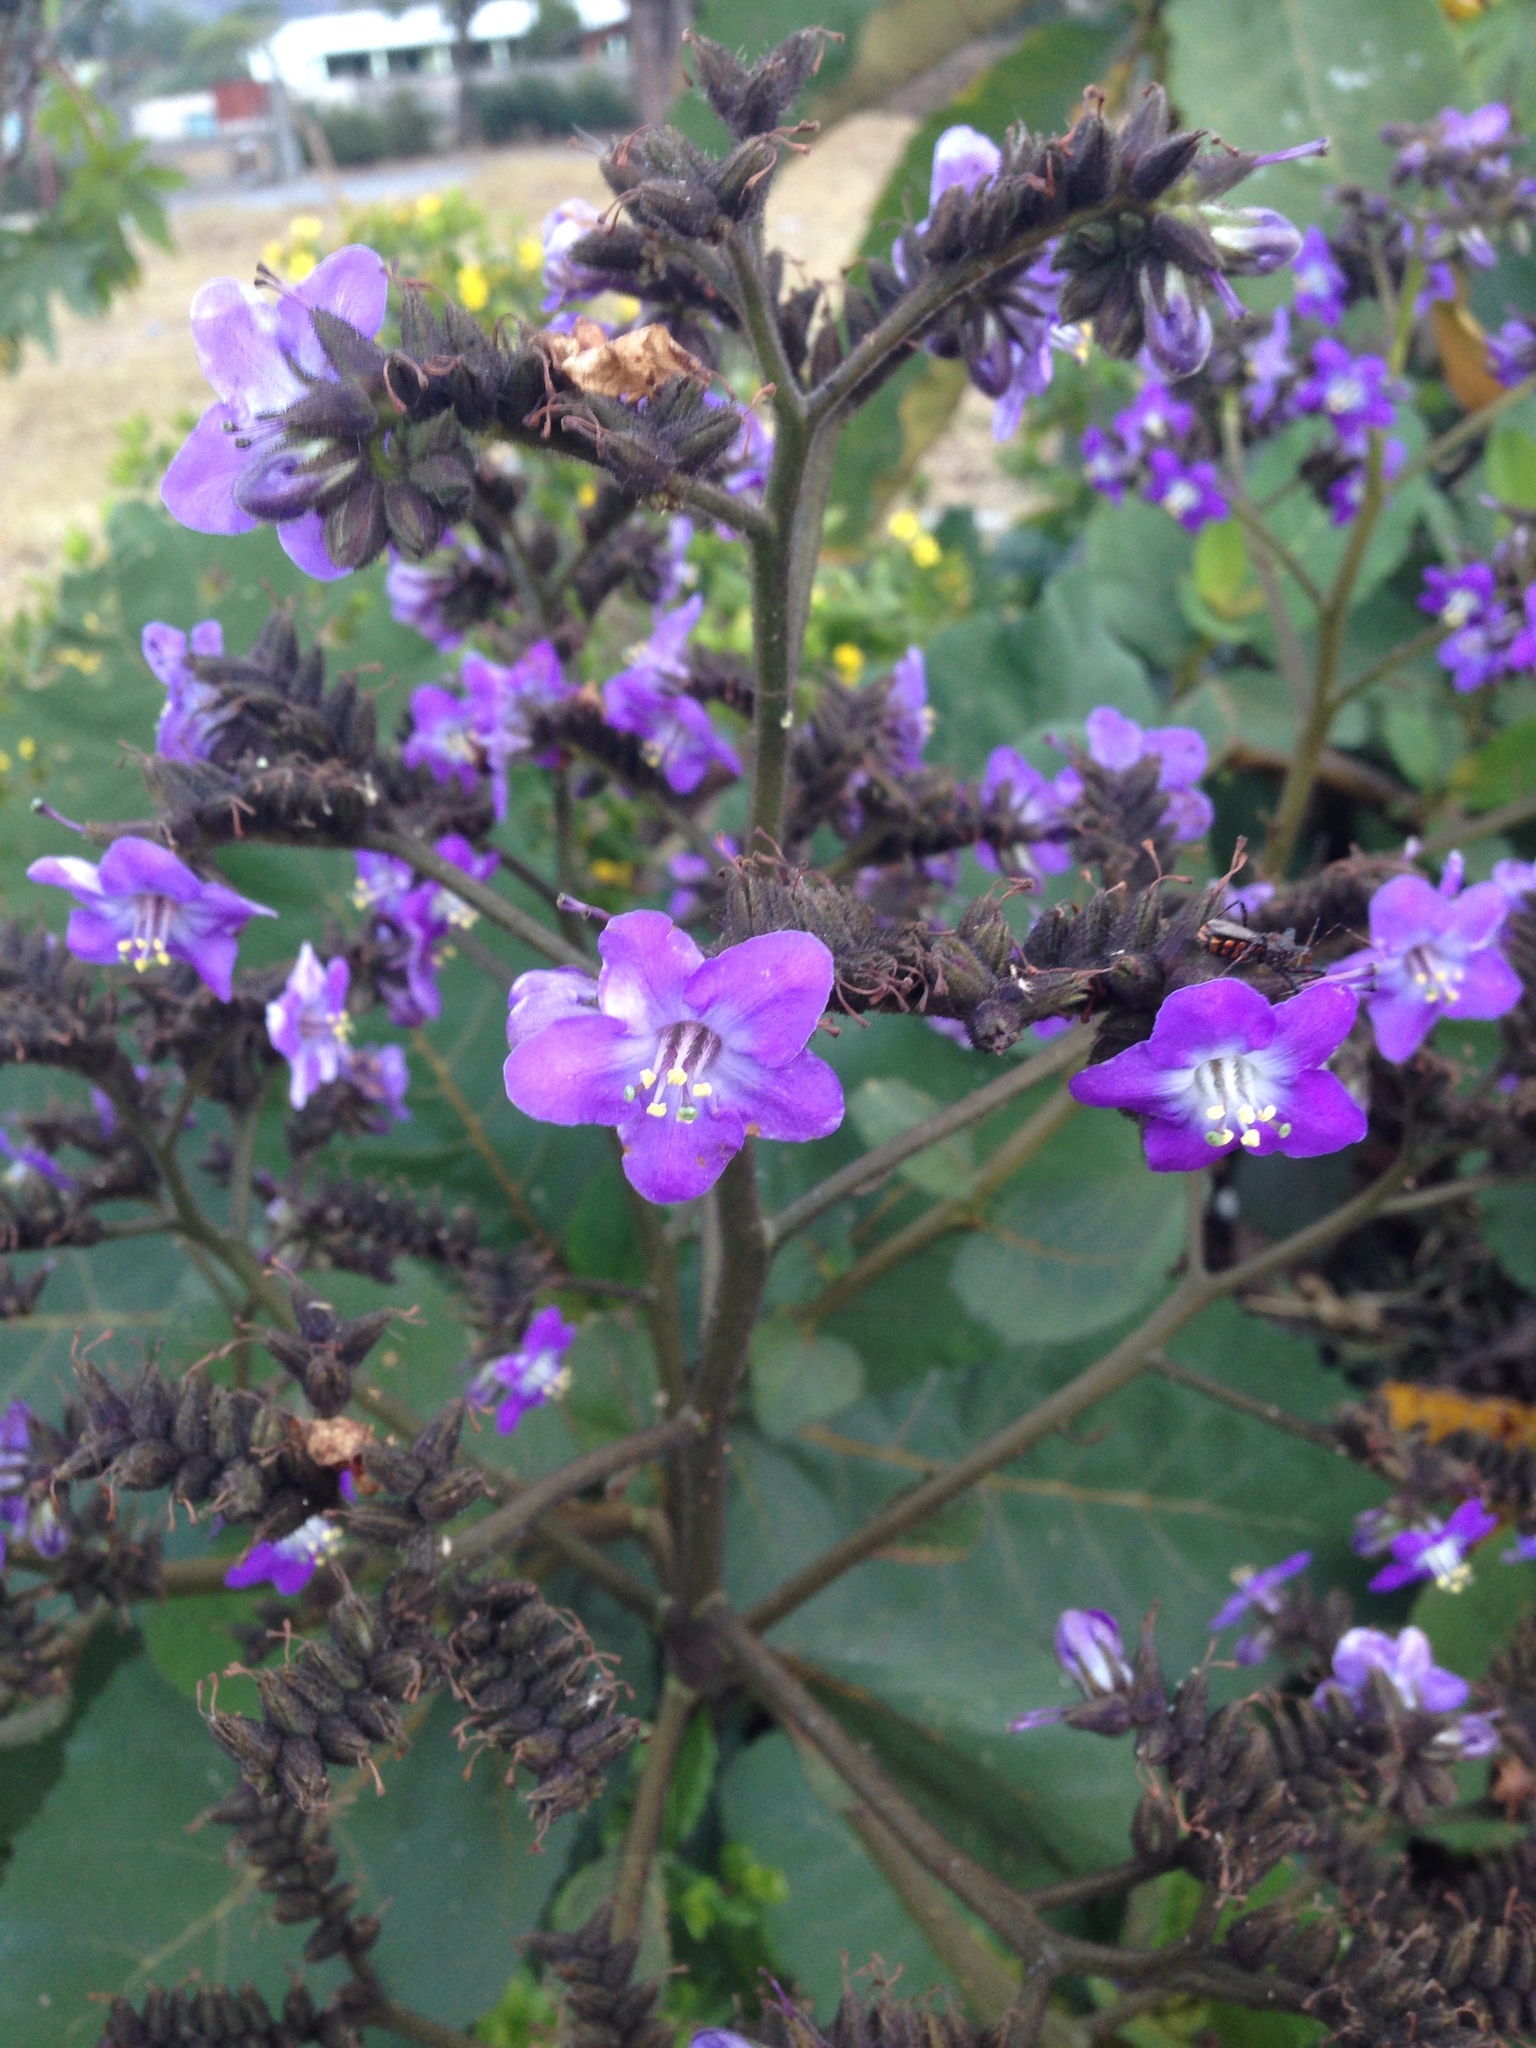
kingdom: Plantae
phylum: Tracheophyta
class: Magnoliopsida
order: Boraginales
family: Namaceae
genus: Wigandia
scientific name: Wigandia urens
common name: Caracus wigandia
